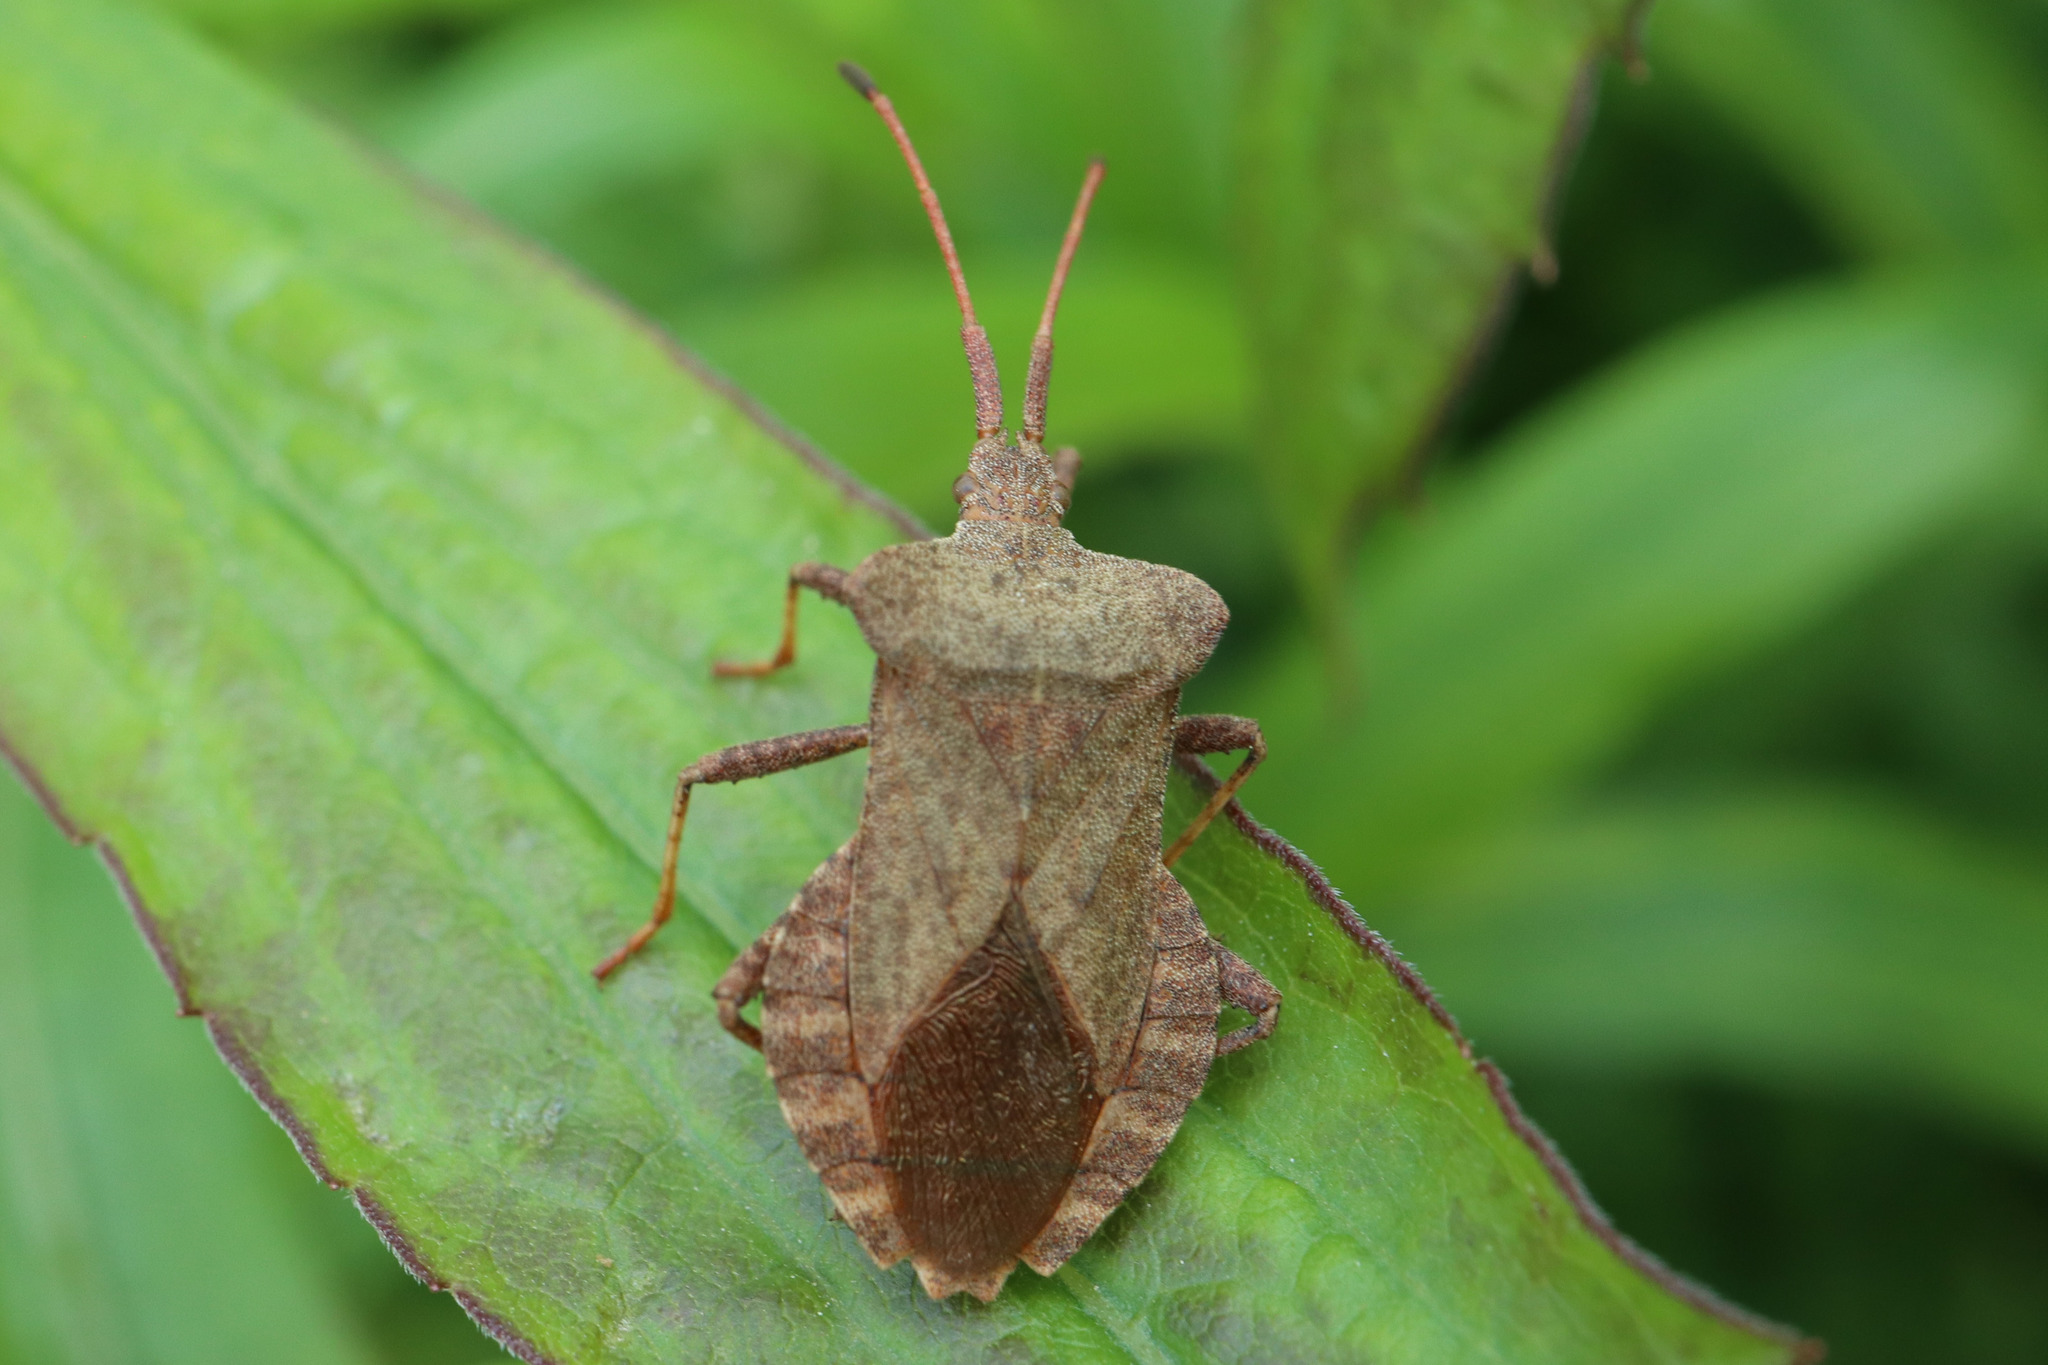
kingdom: Animalia
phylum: Arthropoda
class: Insecta
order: Hemiptera
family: Coreidae
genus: Coreus
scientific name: Coreus marginatus
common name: Dock bug
